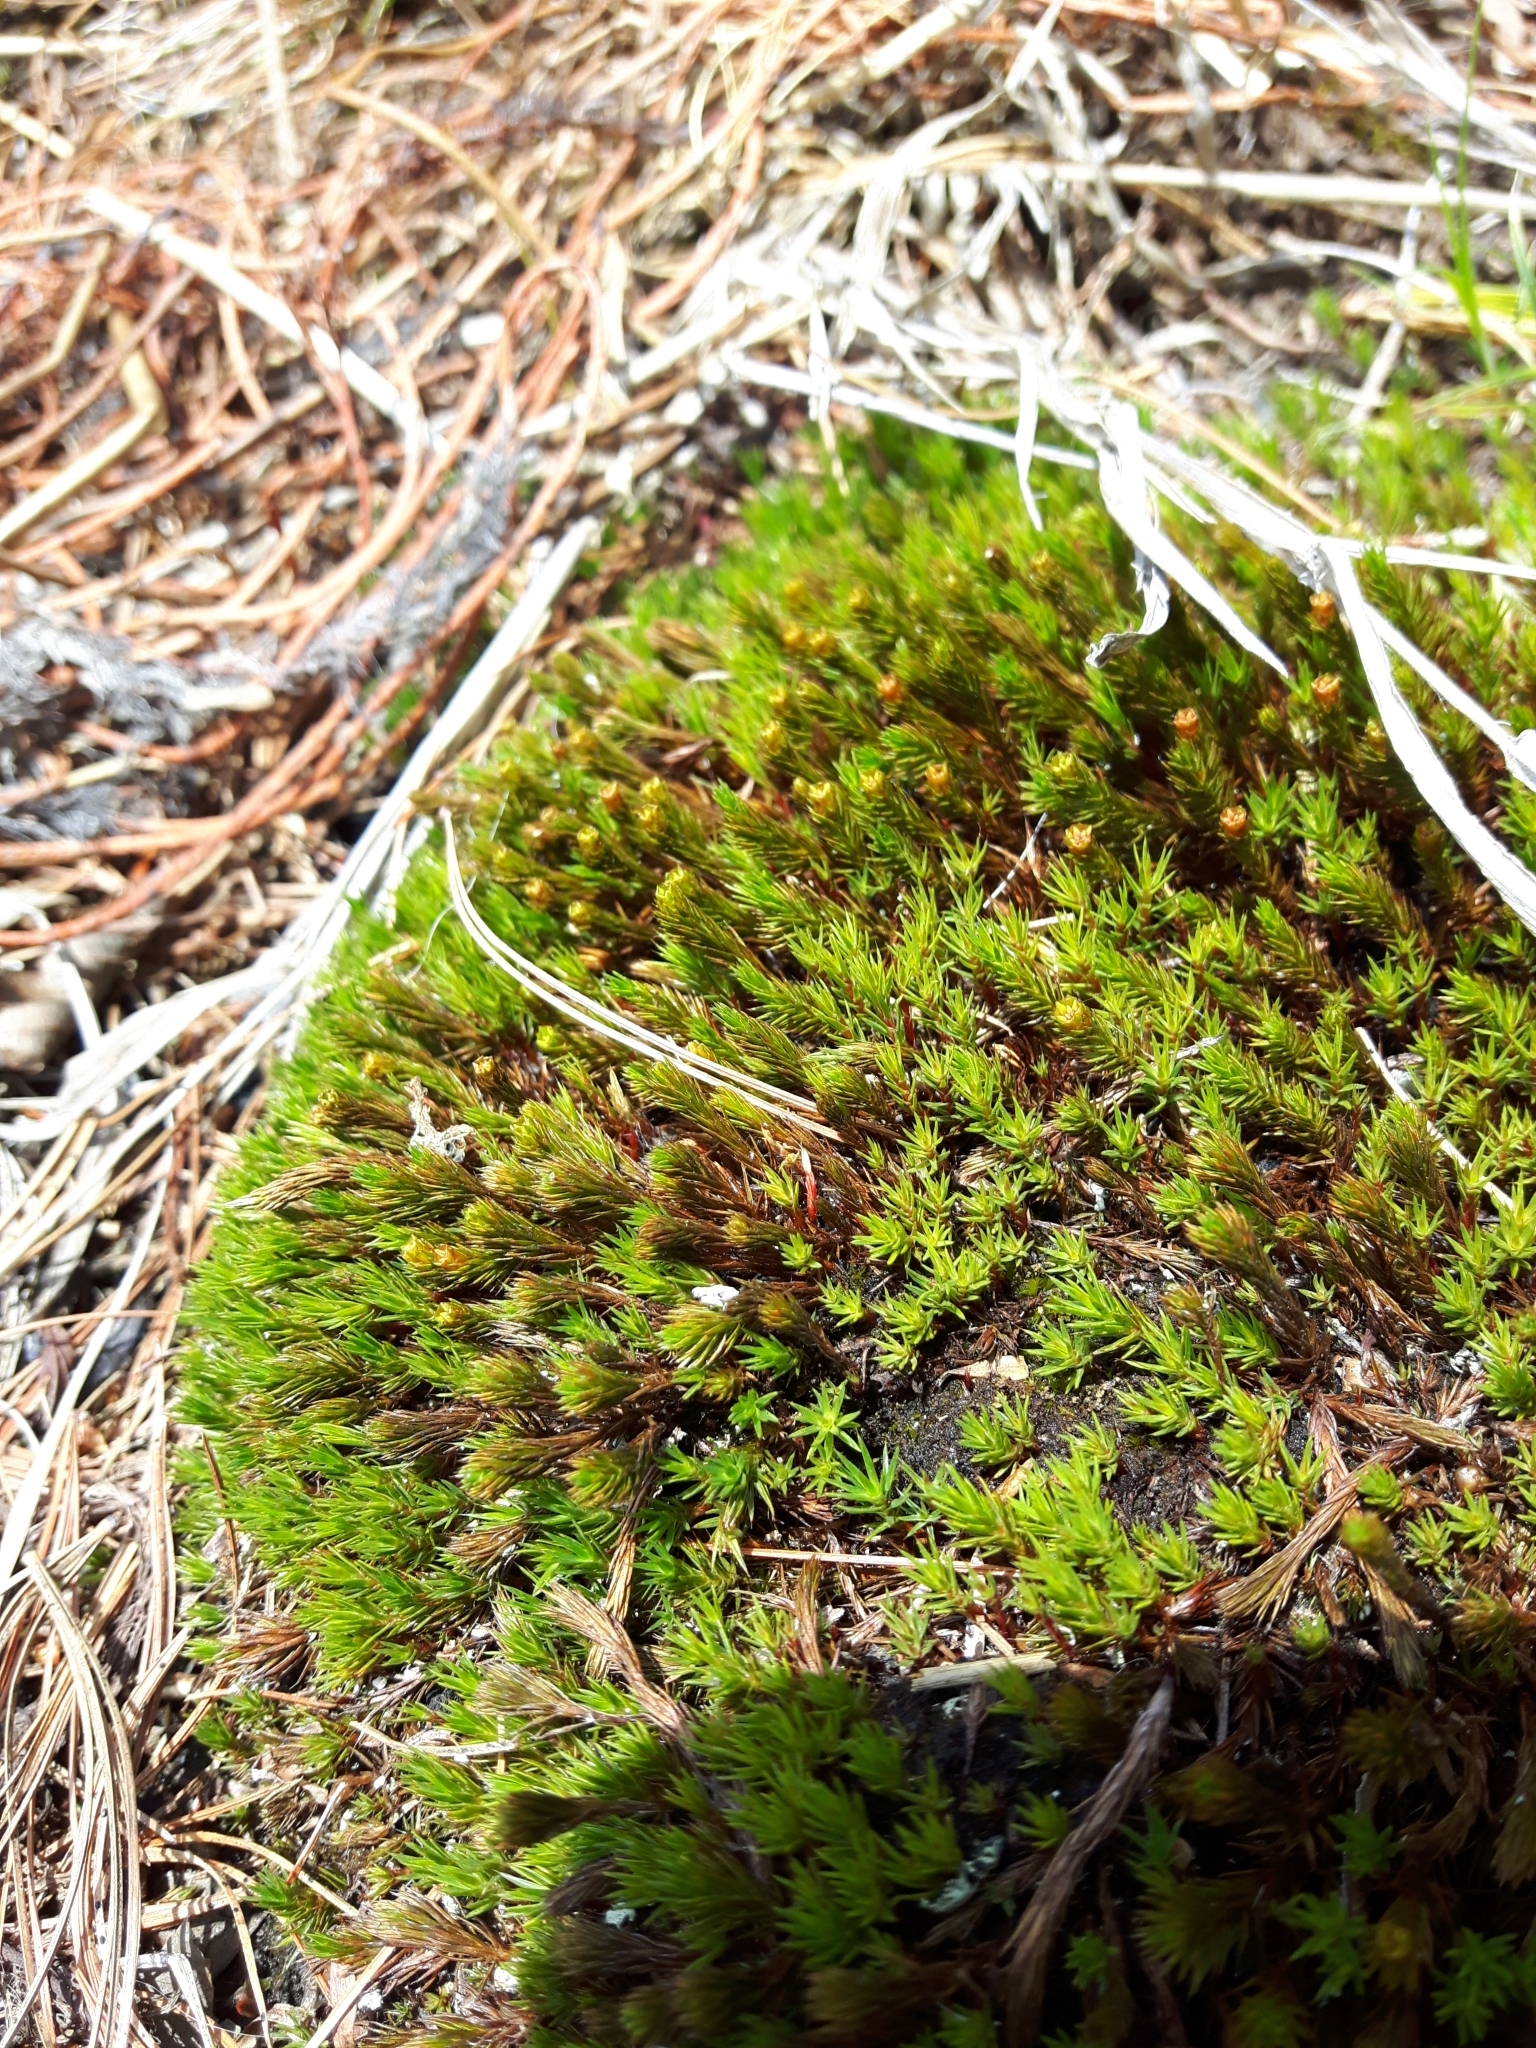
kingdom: Plantae
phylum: Bryophyta
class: Polytrichopsida
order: Polytrichales
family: Polytrichaceae
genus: Polytrichum
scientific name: Polytrichum juniperinum
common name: Juniper haircap moss
